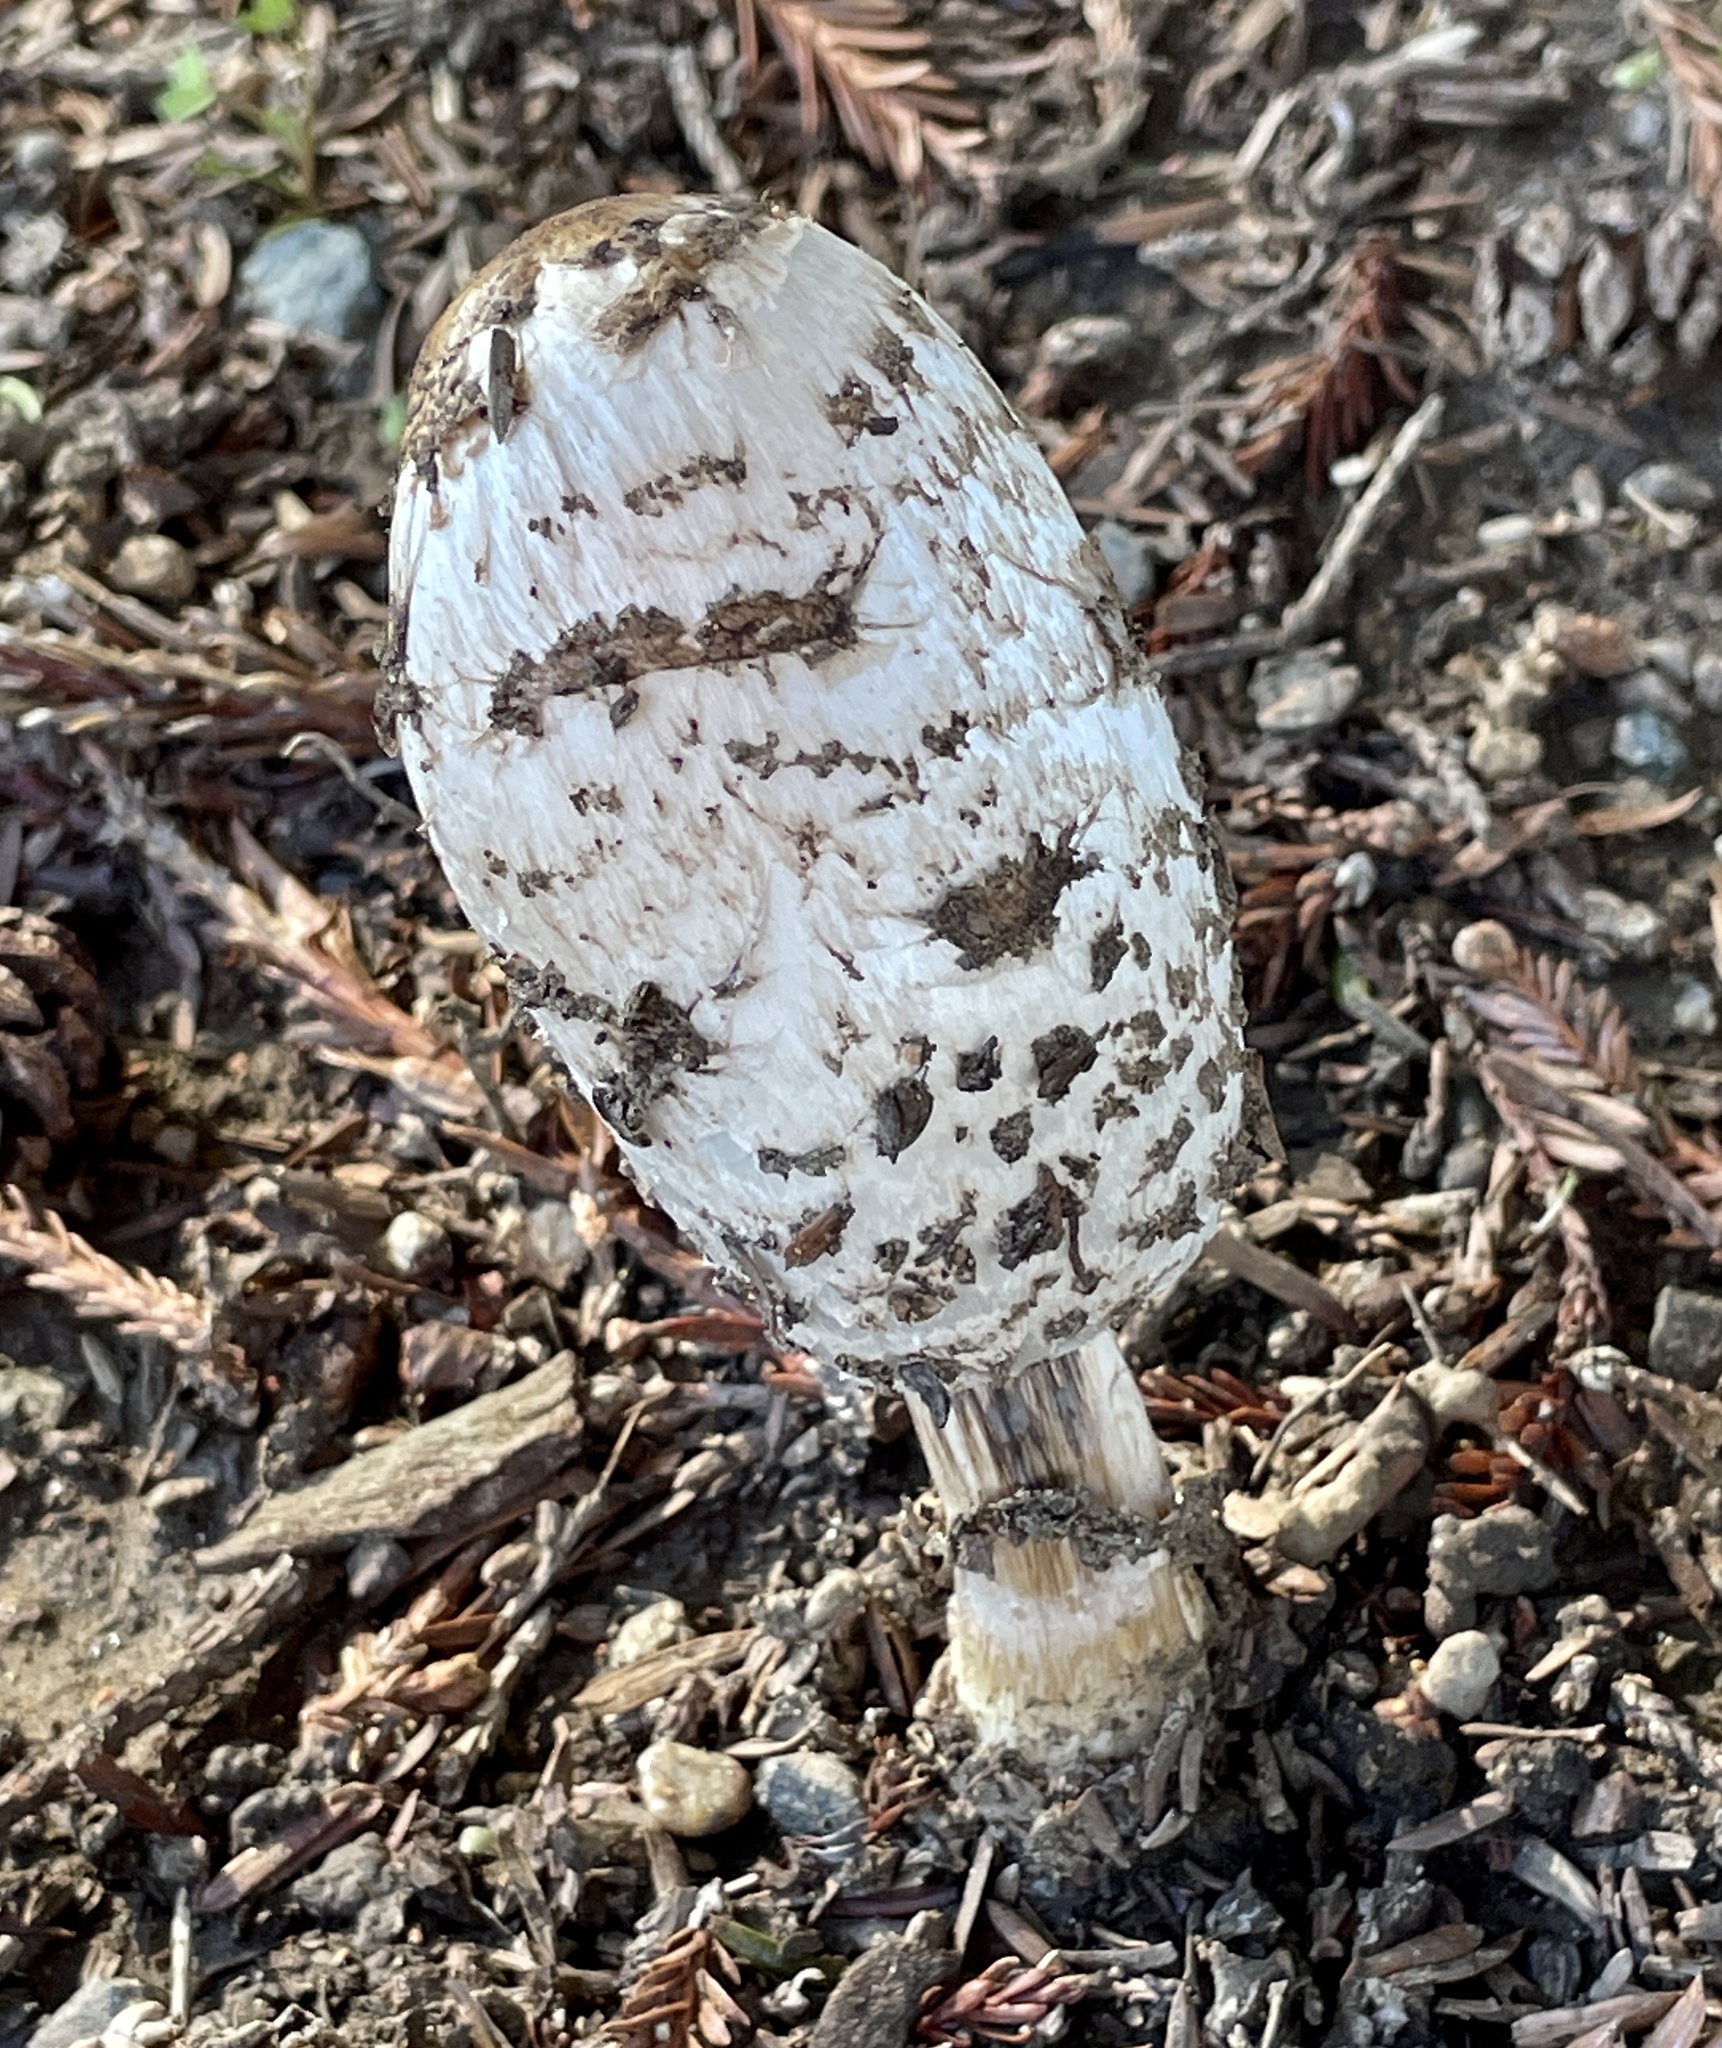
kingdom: Fungi
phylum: Basidiomycota
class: Agaricomycetes
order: Agaricales
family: Agaricaceae
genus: Coprinus
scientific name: Coprinus comatus
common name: Lawyer's wig
